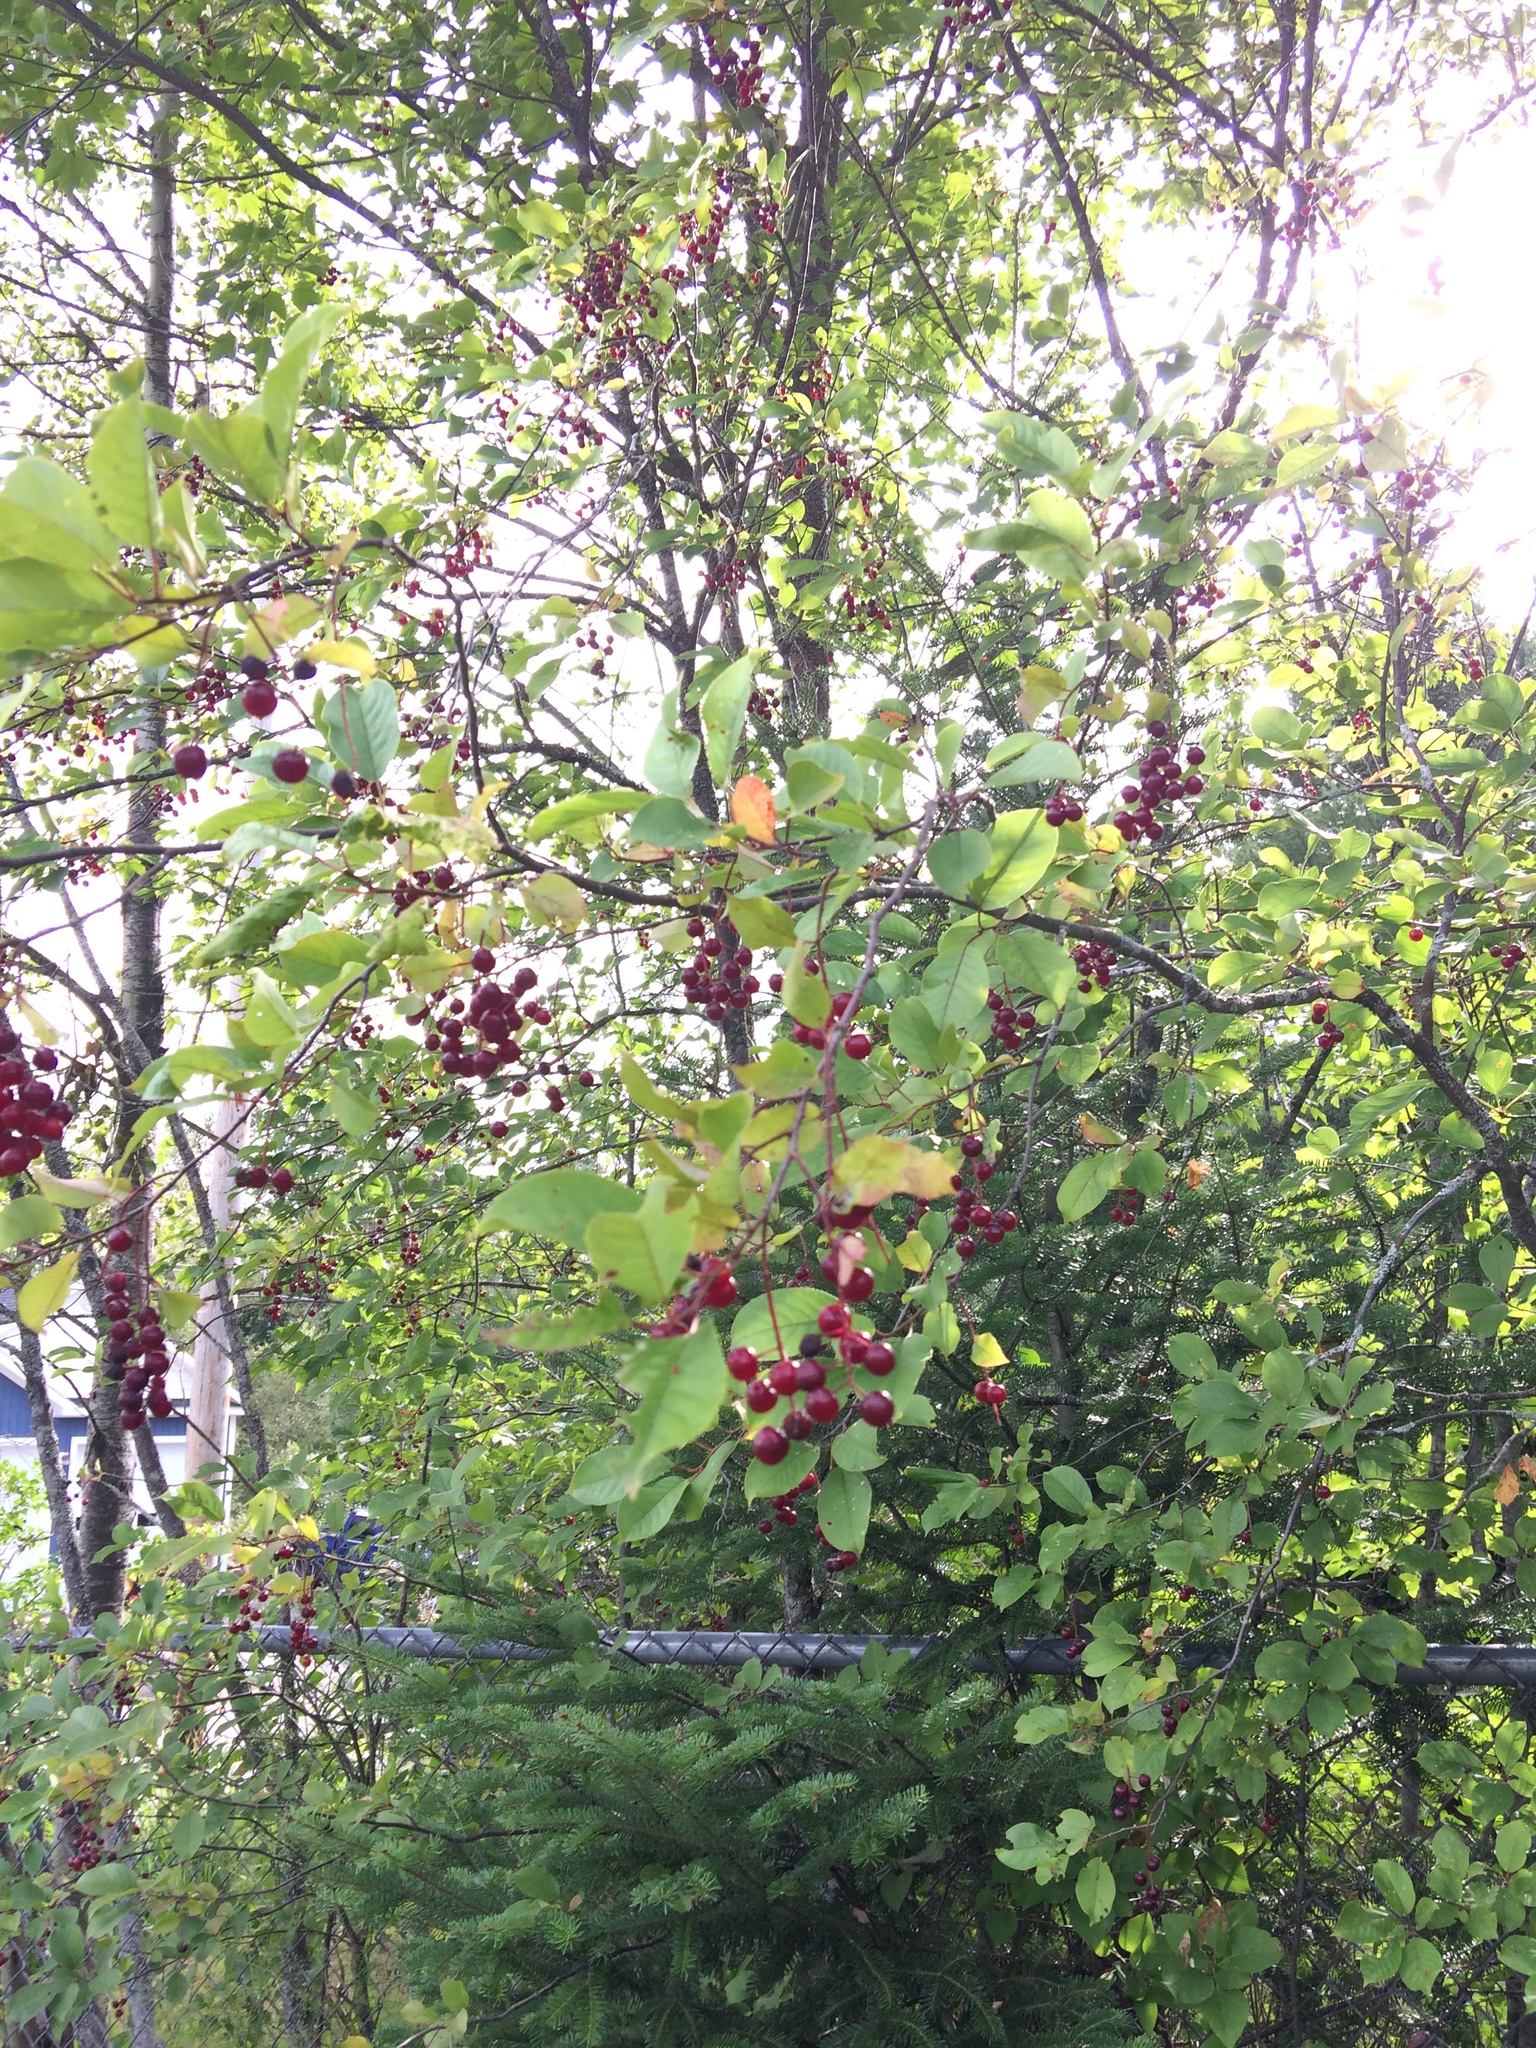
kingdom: Plantae
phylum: Tracheophyta
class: Magnoliopsida
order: Rosales
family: Rosaceae
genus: Prunus
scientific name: Prunus virginiana
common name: Chokecherry
